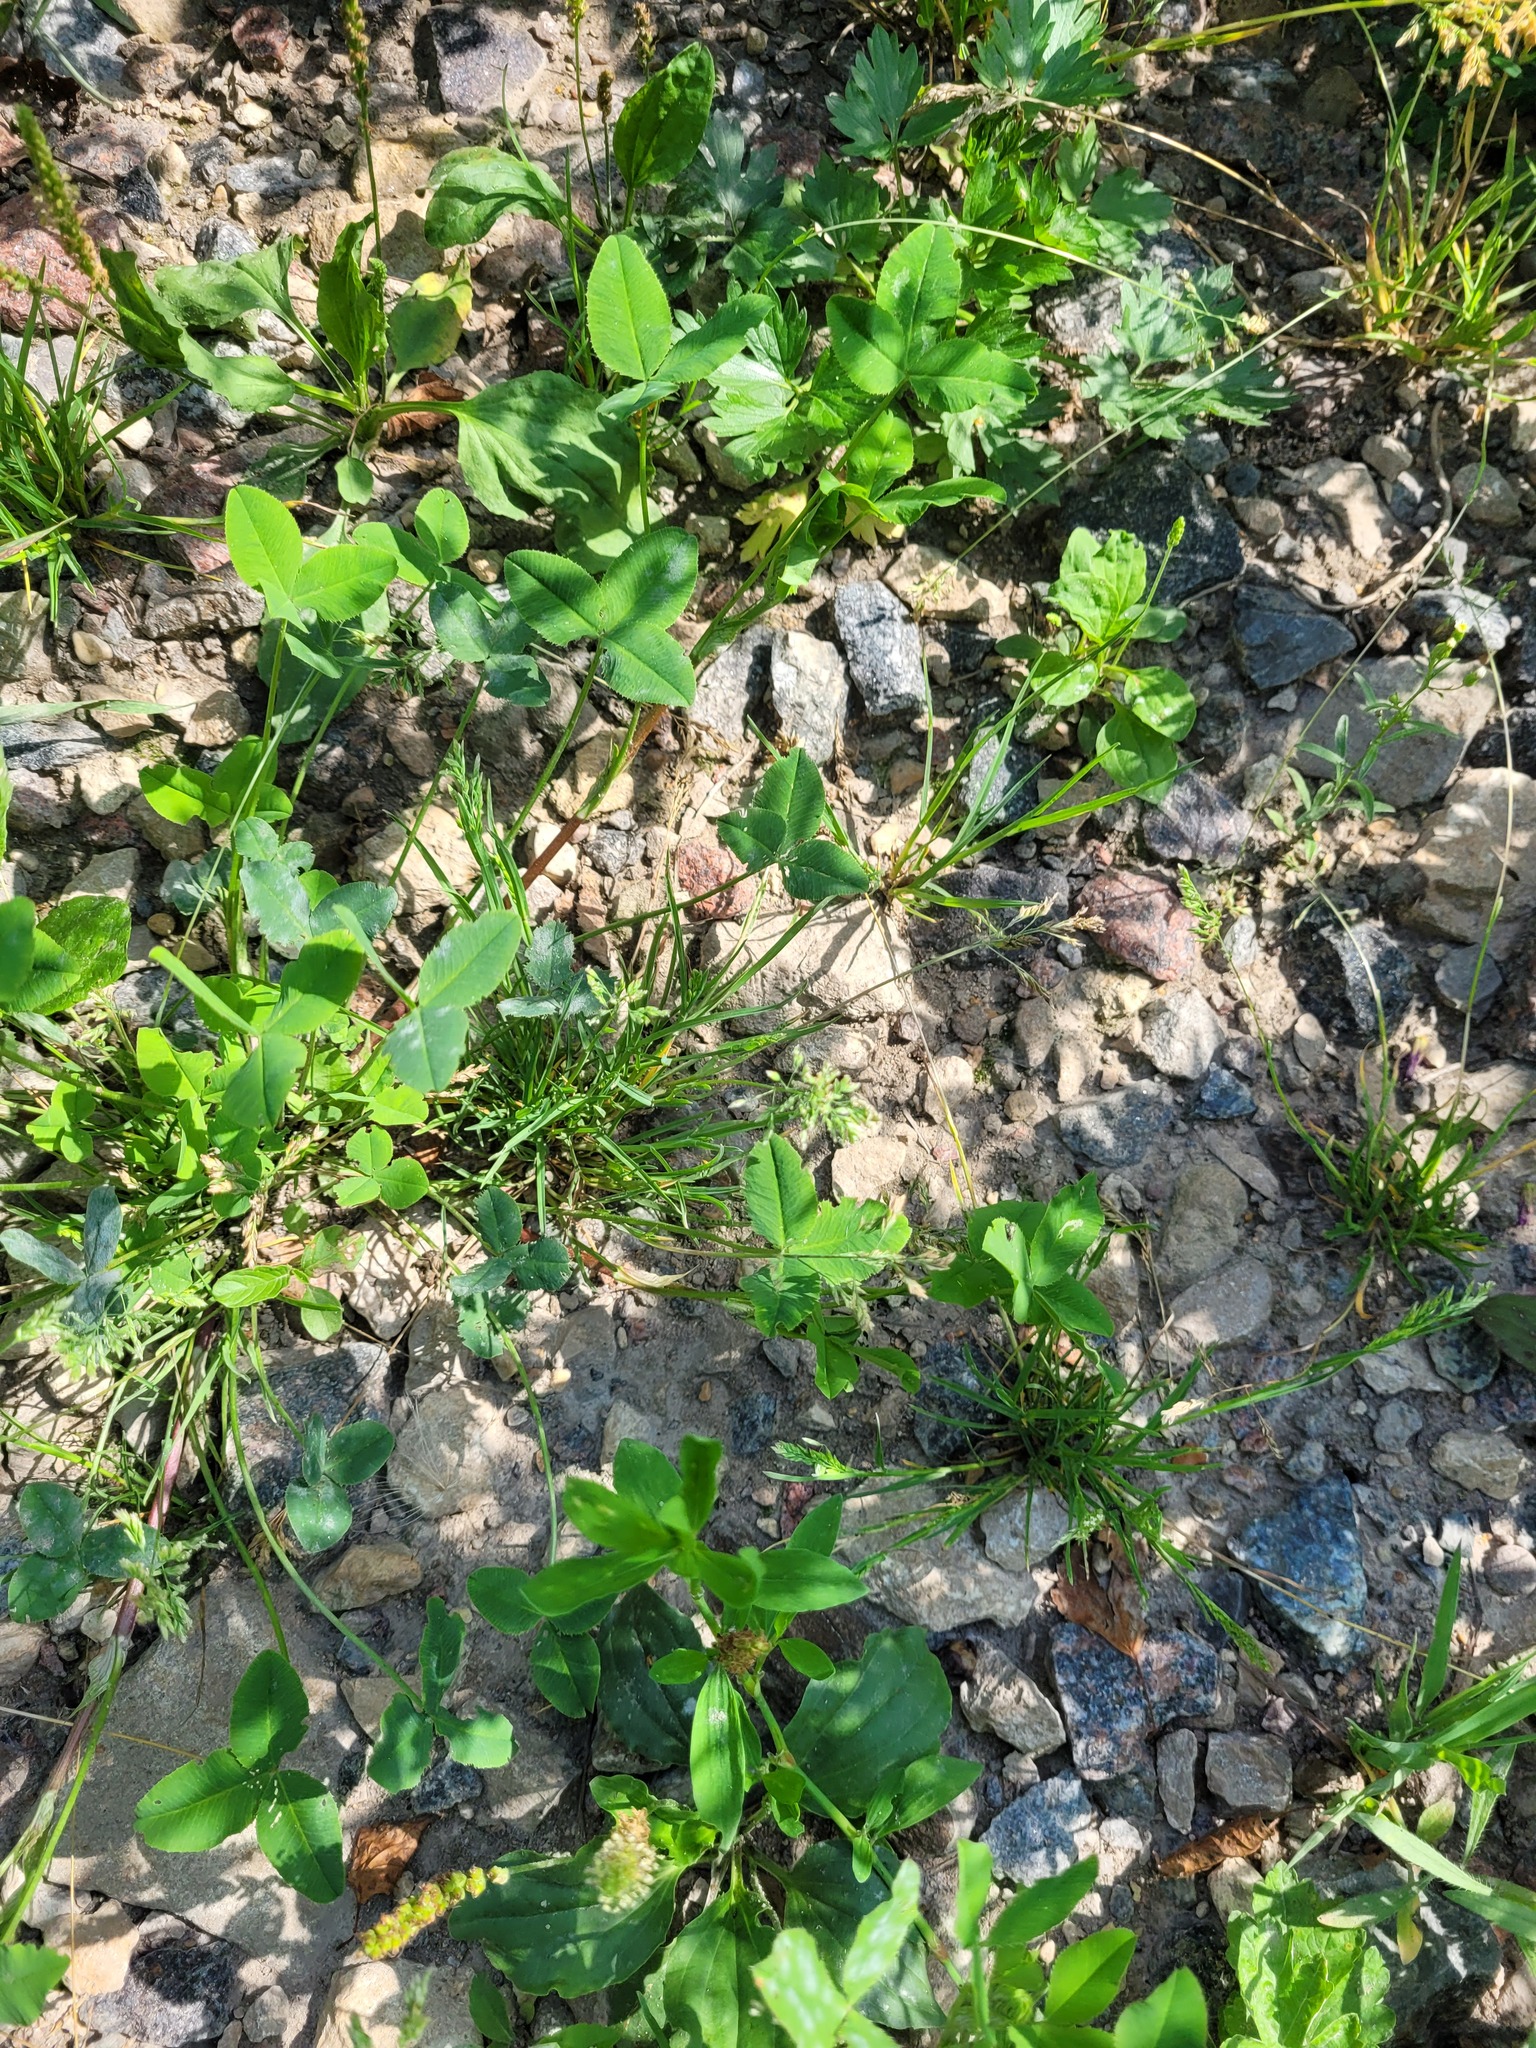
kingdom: Plantae
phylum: Tracheophyta
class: Liliopsida
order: Poales
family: Poaceae
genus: Poa
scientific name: Poa annua
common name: Annual bluegrass
